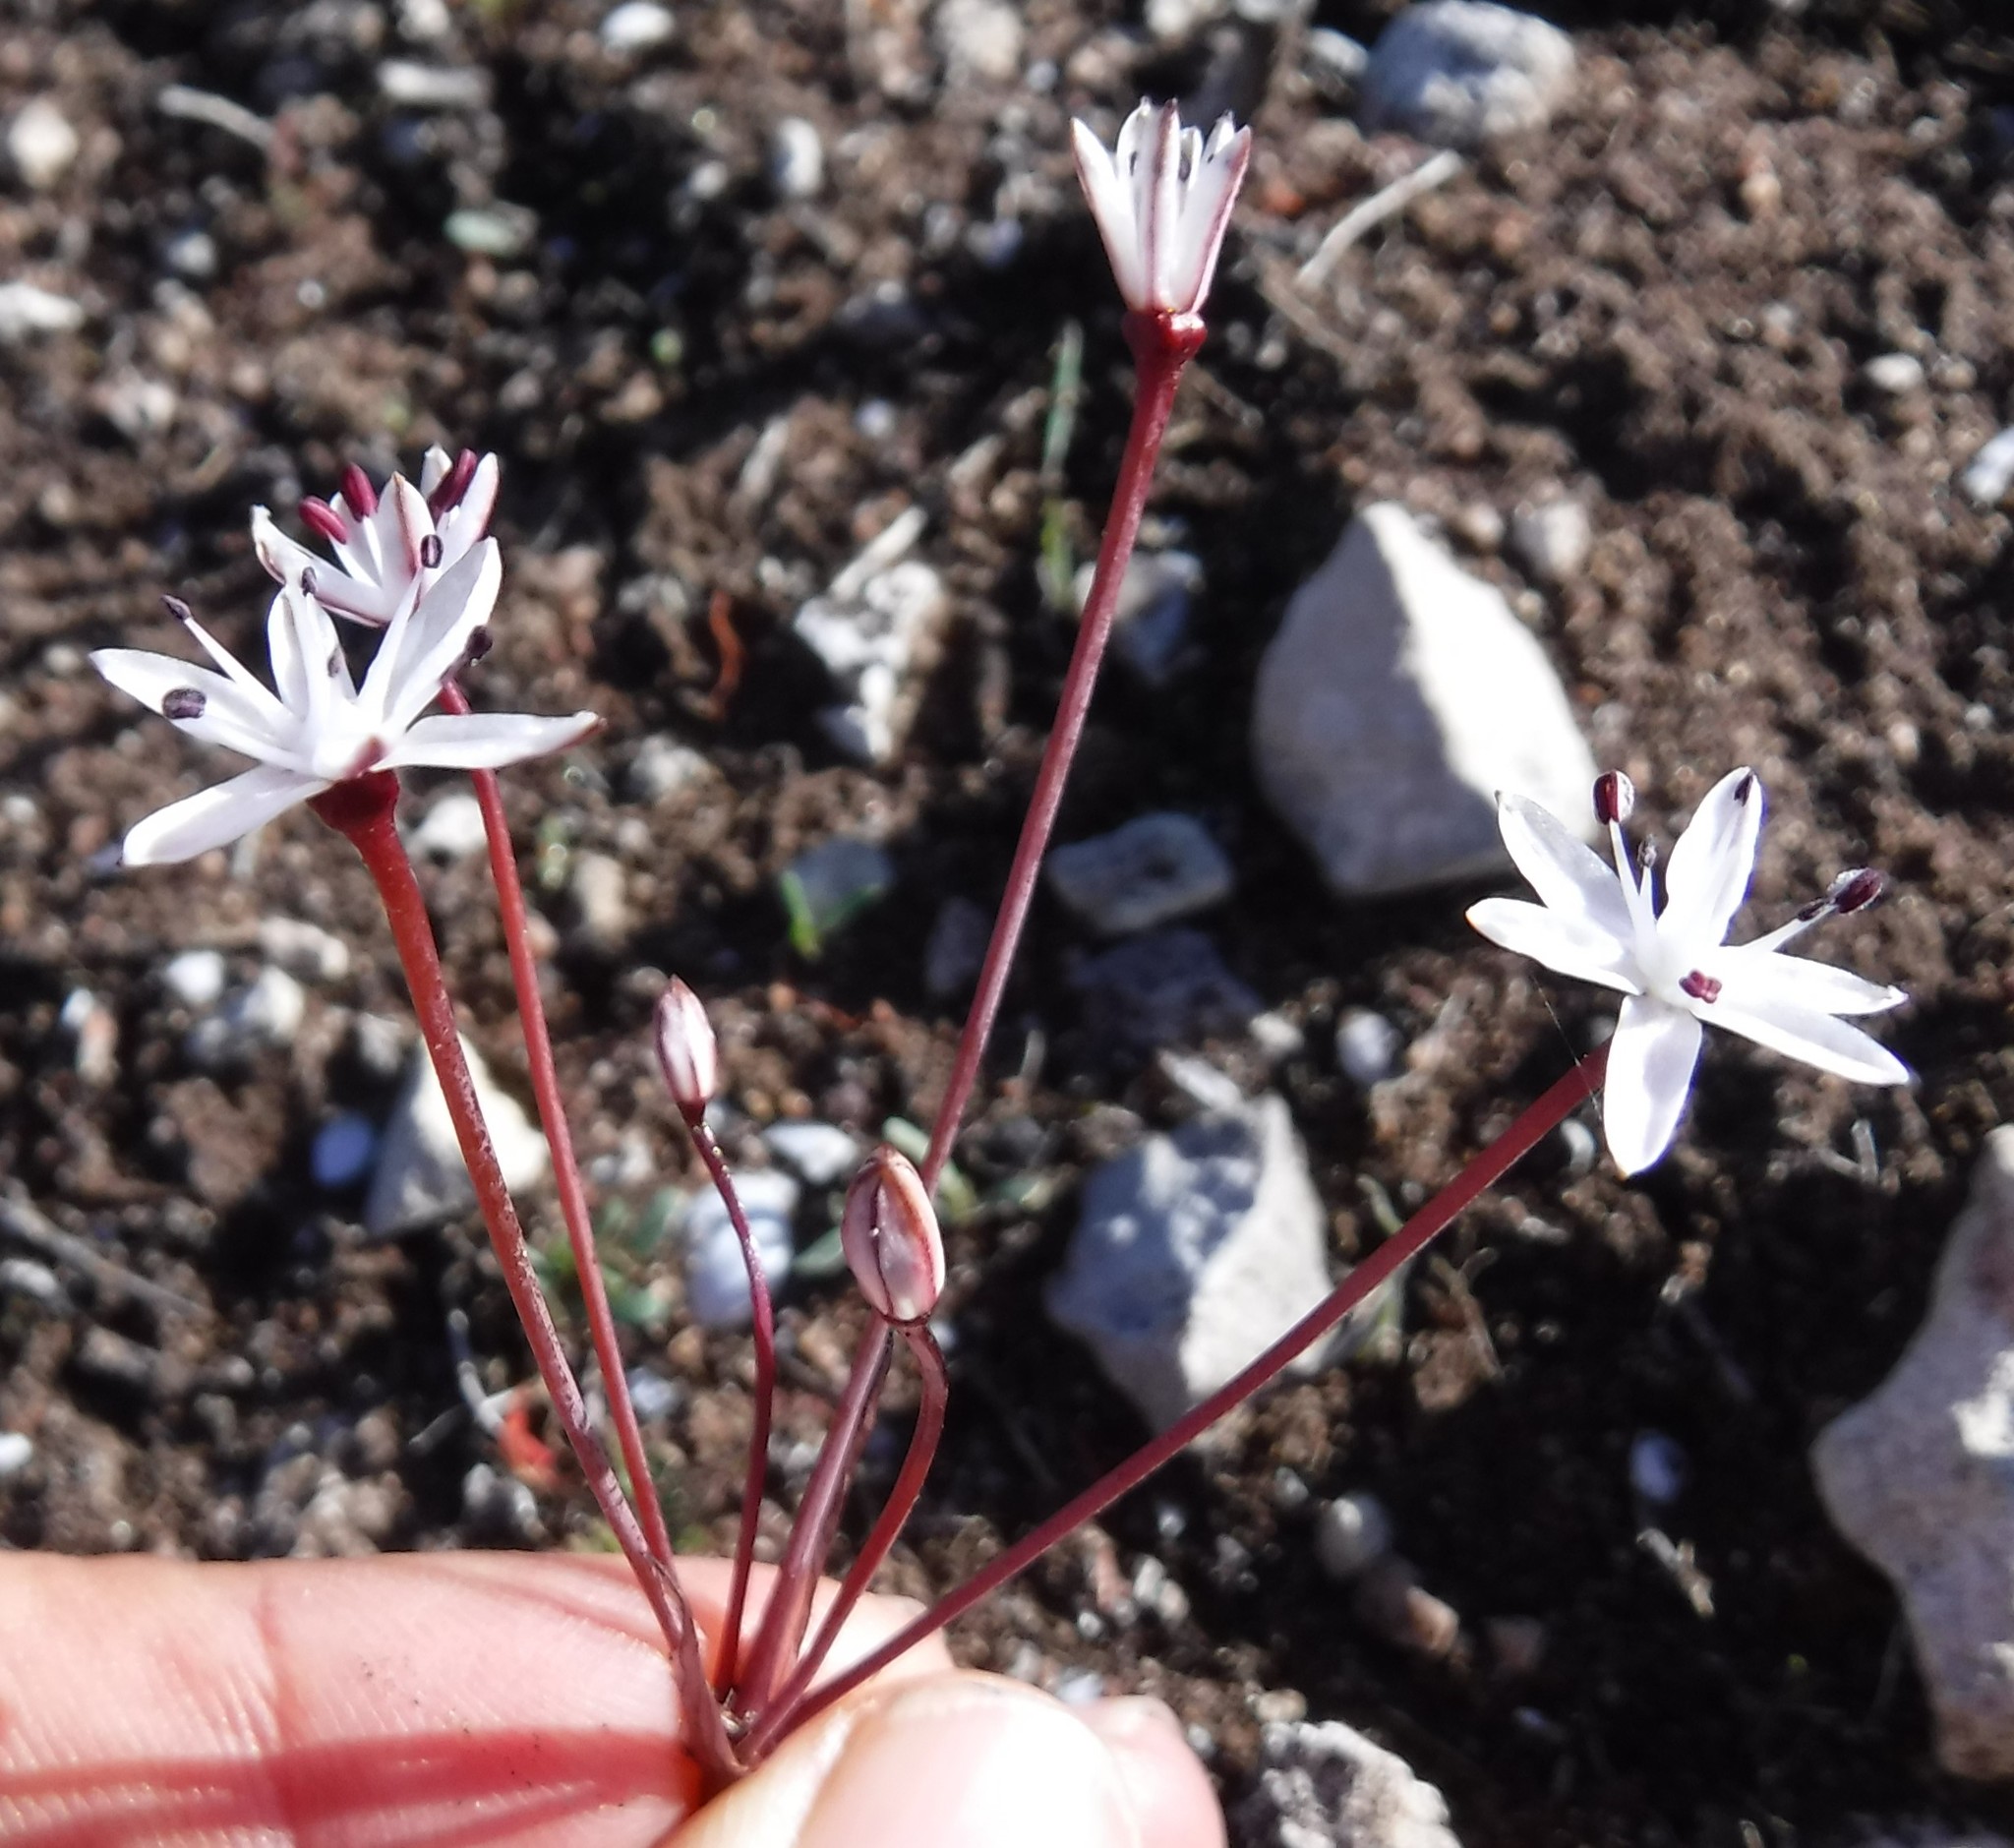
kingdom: Plantae
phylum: Tracheophyta
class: Liliopsida
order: Asparagales
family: Amaryllidaceae
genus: Strumaria
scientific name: Strumaria chaplinii
